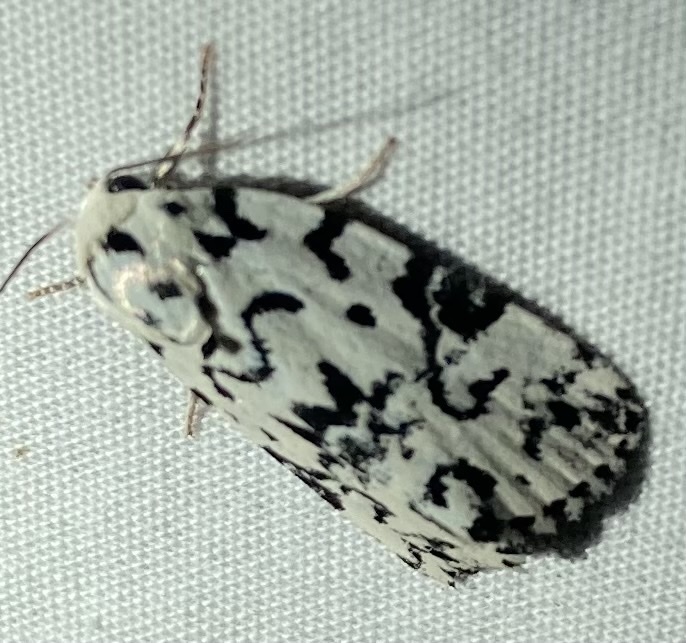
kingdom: Animalia
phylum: Arthropoda
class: Insecta
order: Lepidoptera
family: Noctuidae
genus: Polygrammate
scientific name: Polygrammate hebraeicum
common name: Hebrew moth
